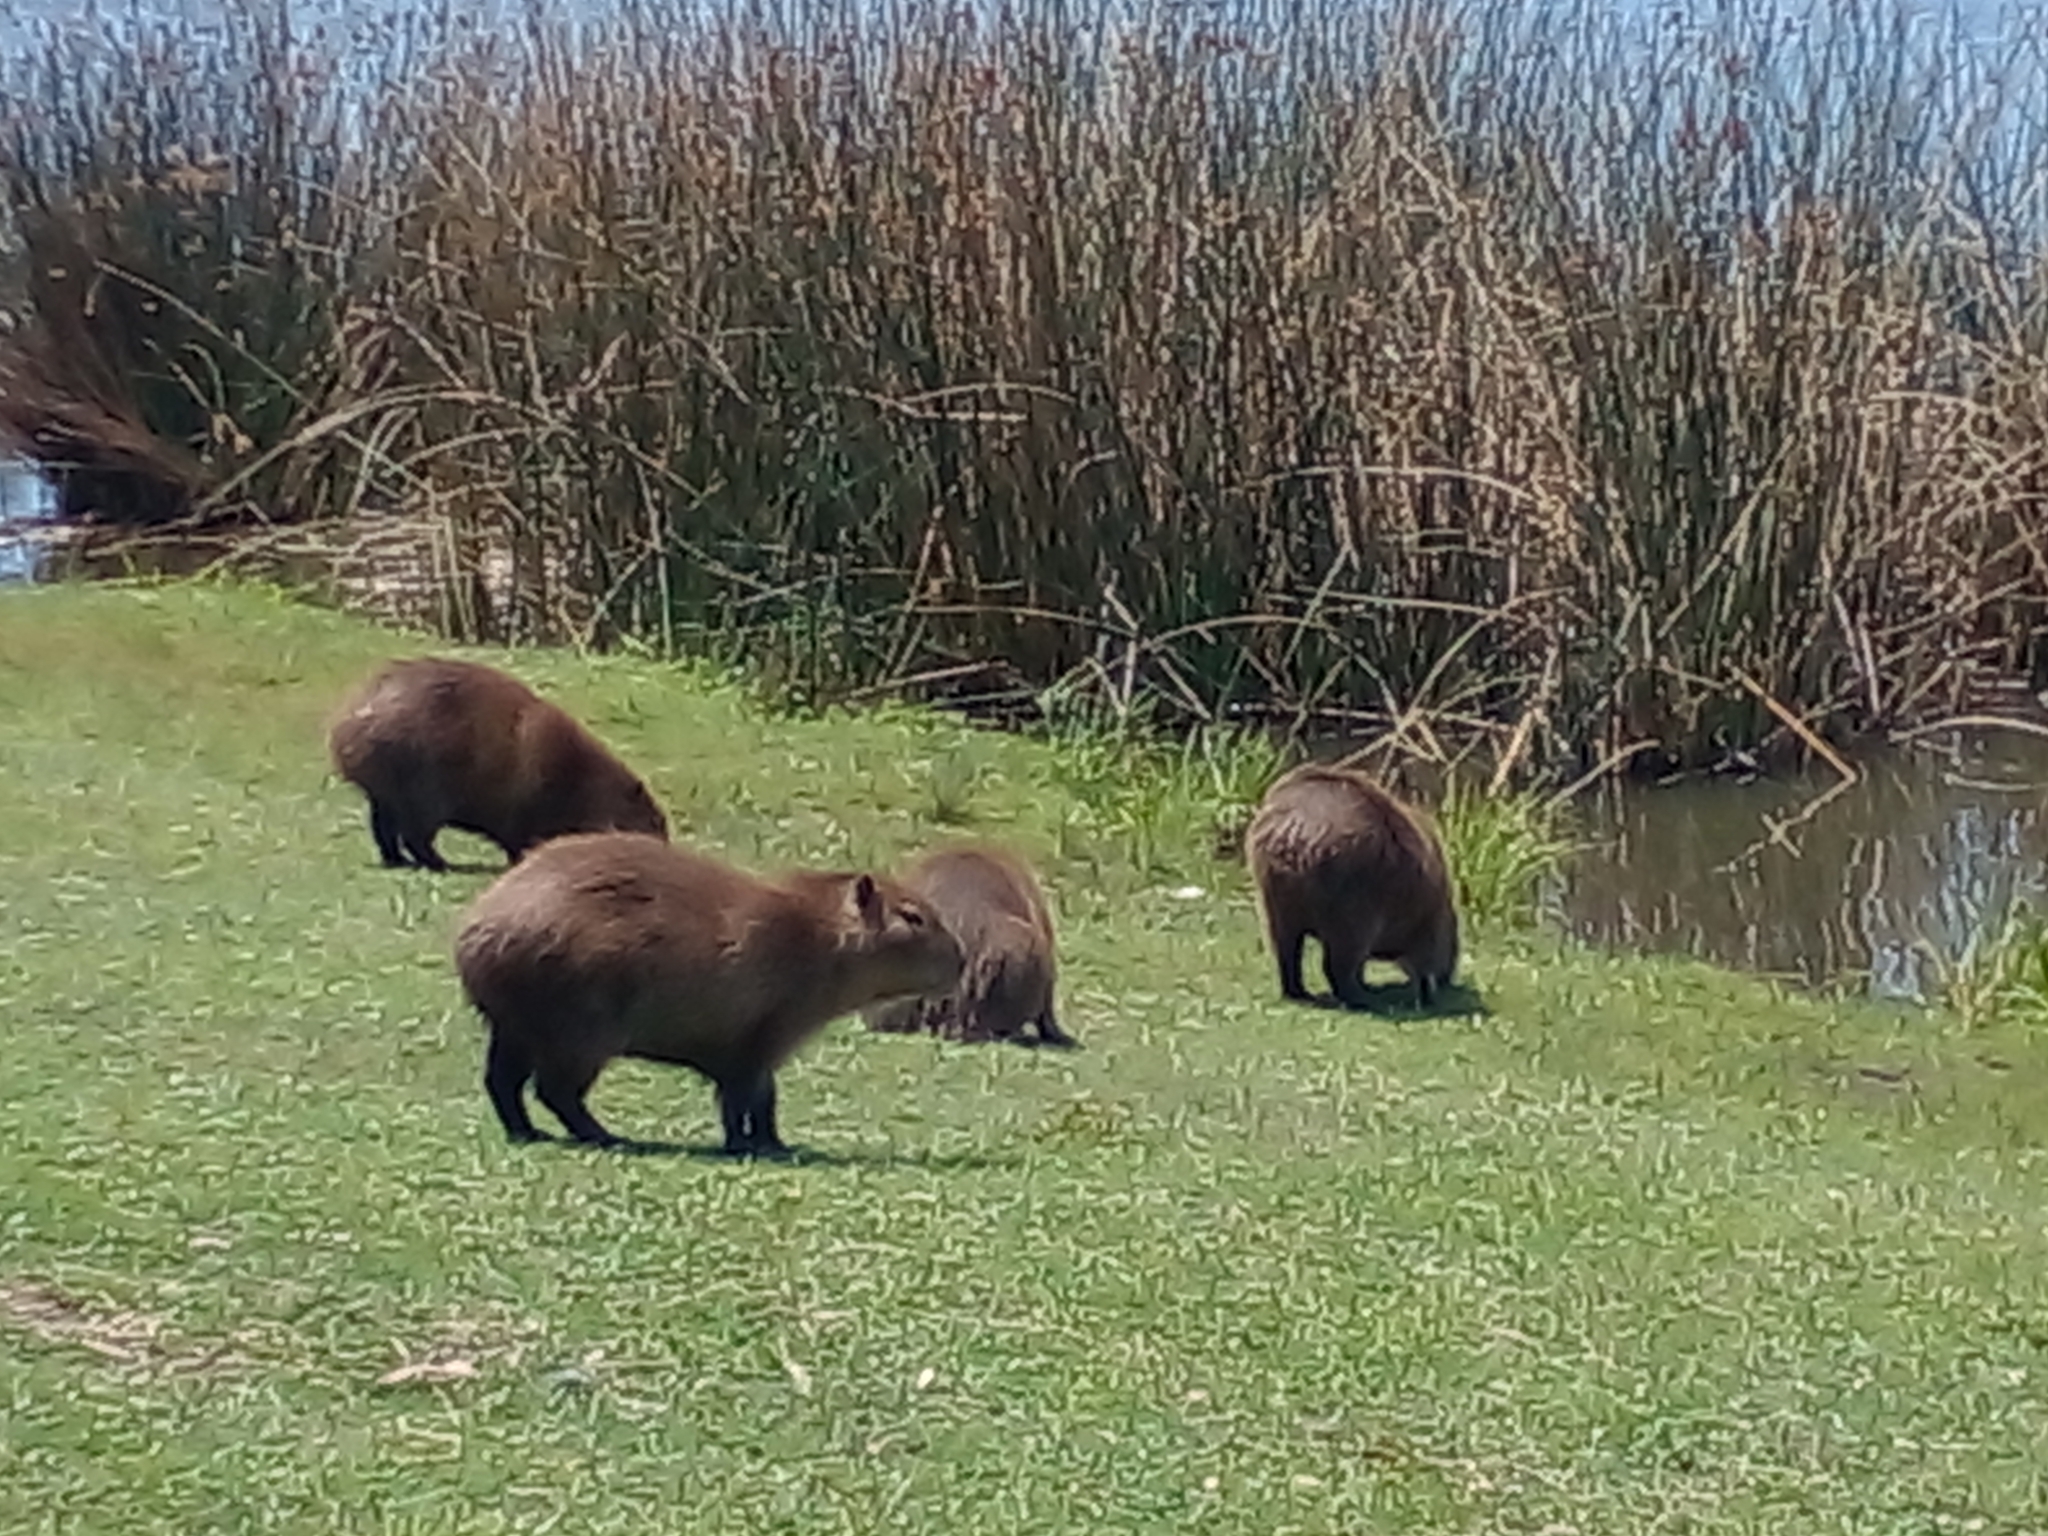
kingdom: Animalia
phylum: Chordata
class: Mammalia
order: Rodentia
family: Caviidae
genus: Hydrochoerus
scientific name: Hydrochoerus hydrochaeris
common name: Capybara
